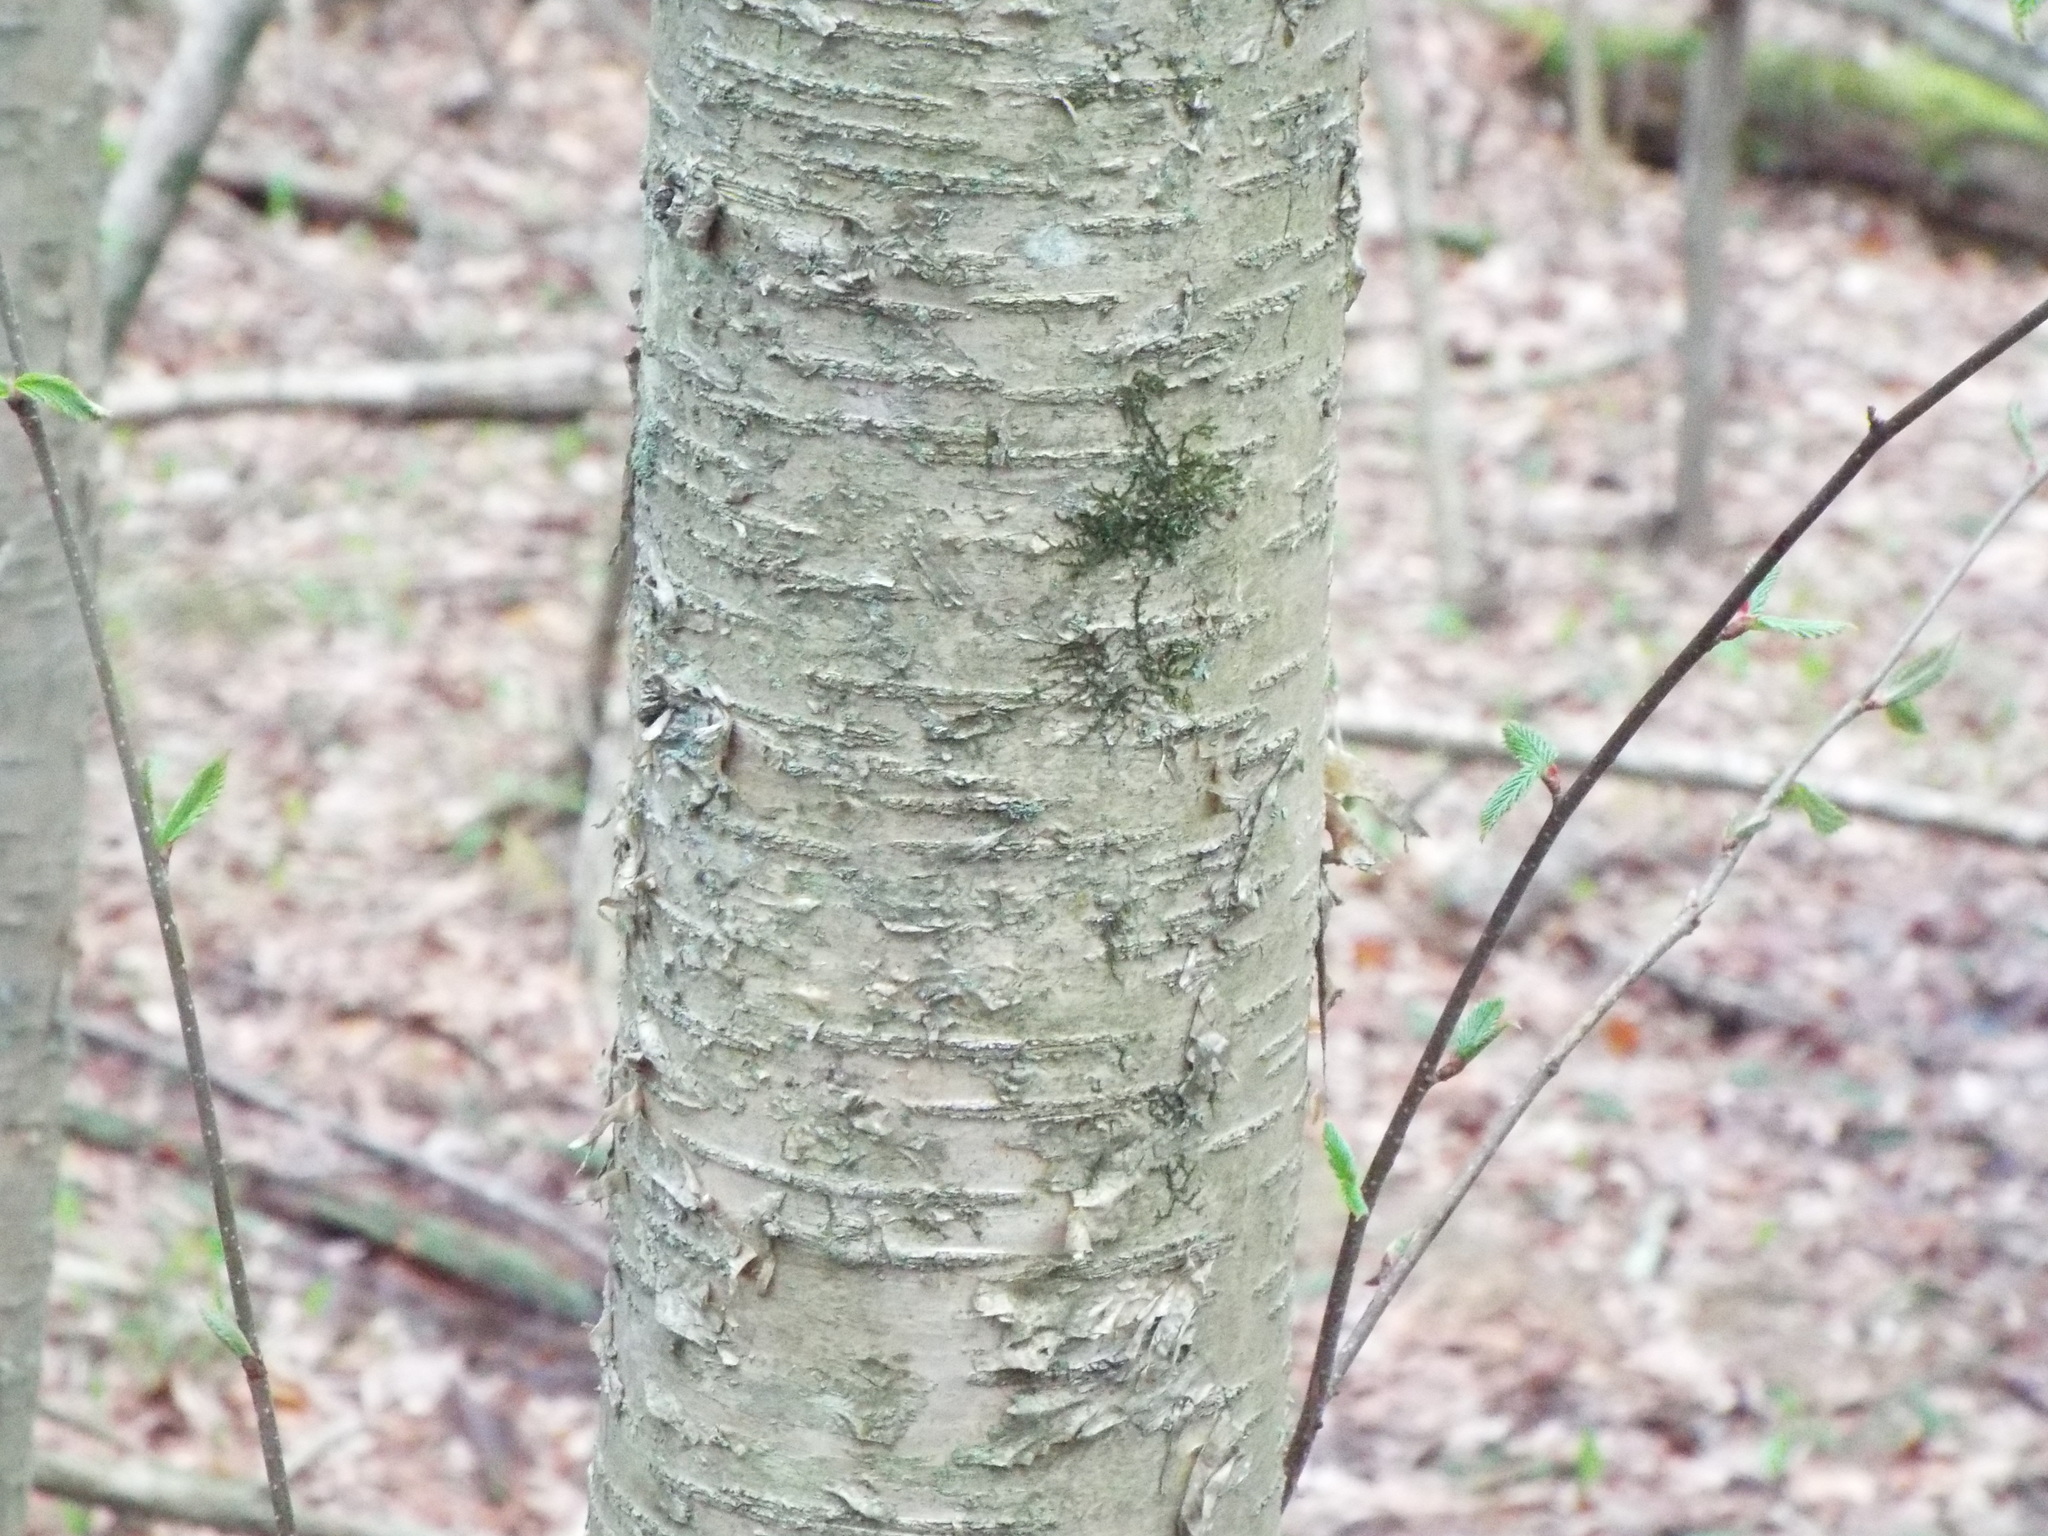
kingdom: Plantae
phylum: Tracheophyta
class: Magnoliopsida
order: Fagales
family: Betulaceae
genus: Betula
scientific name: Betula alleghaniensis
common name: Yellow birch
